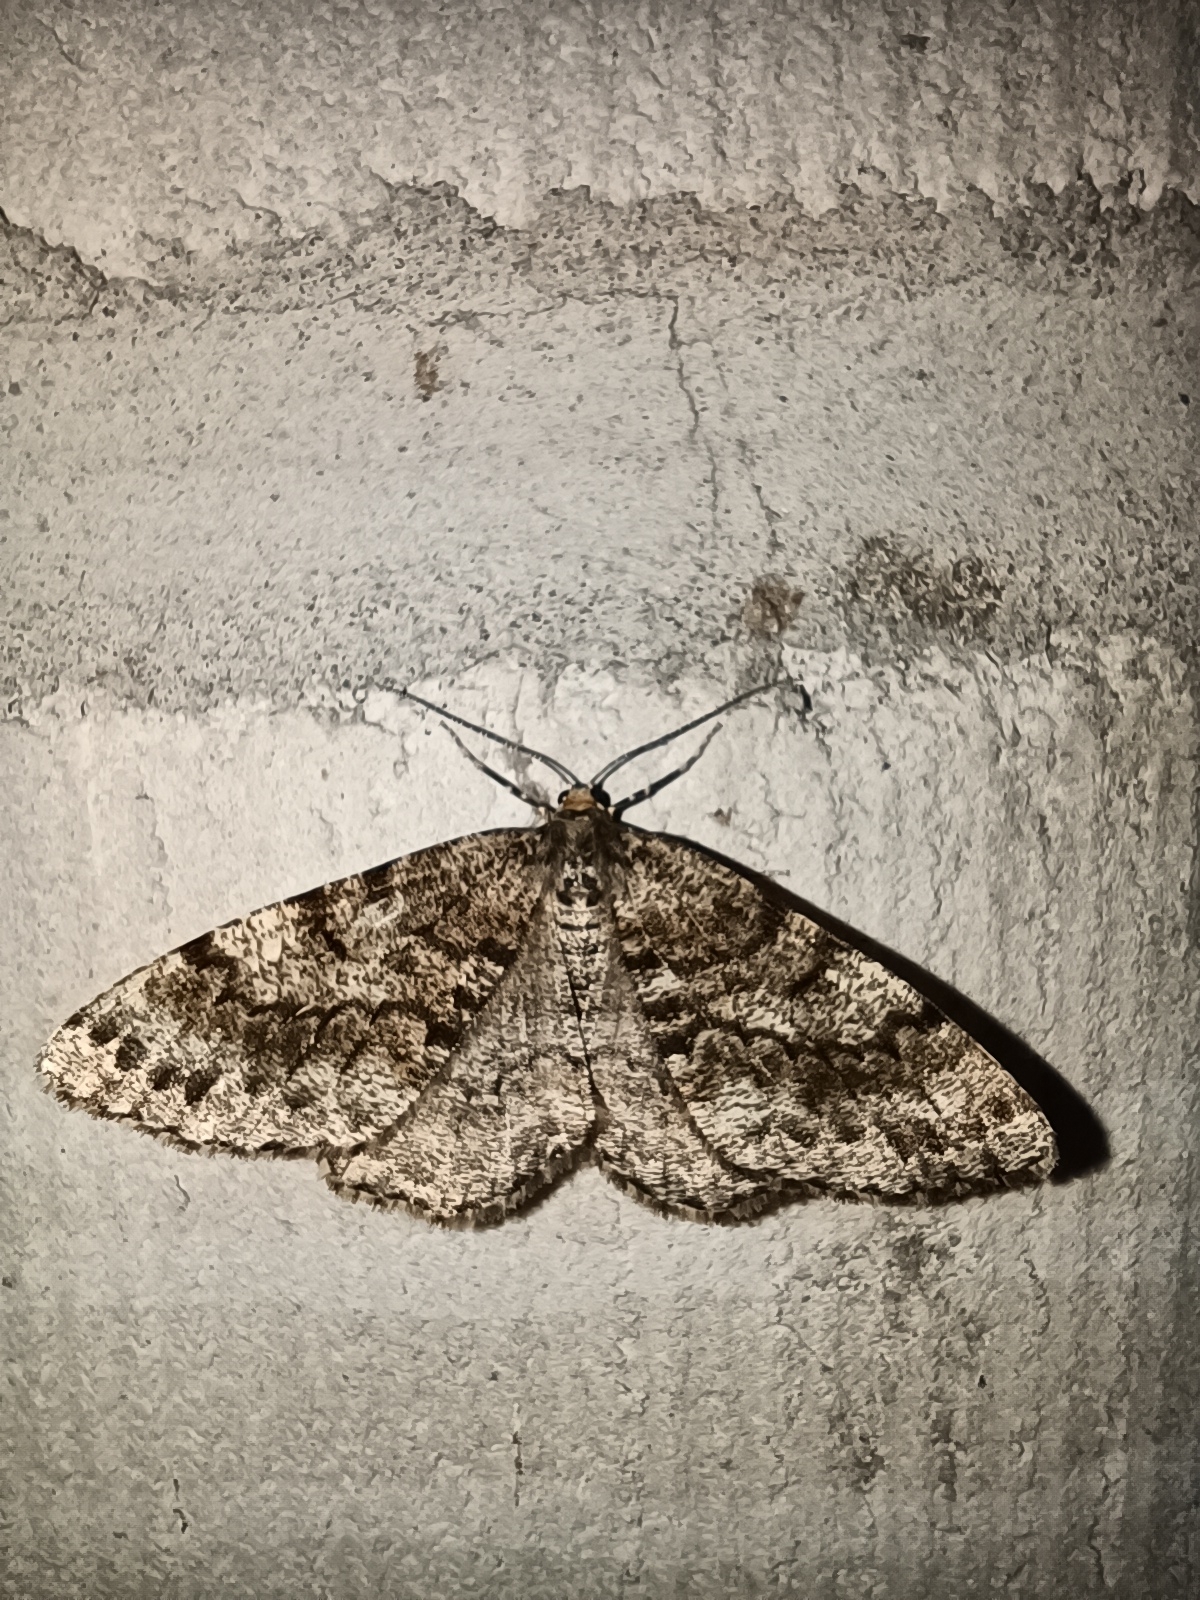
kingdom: Animalia
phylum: Arthropoda
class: Insecta
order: Lepidoptera
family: Geometridae
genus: Deileptenia
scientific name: Deileptenia ribeata
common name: Satin beauty
